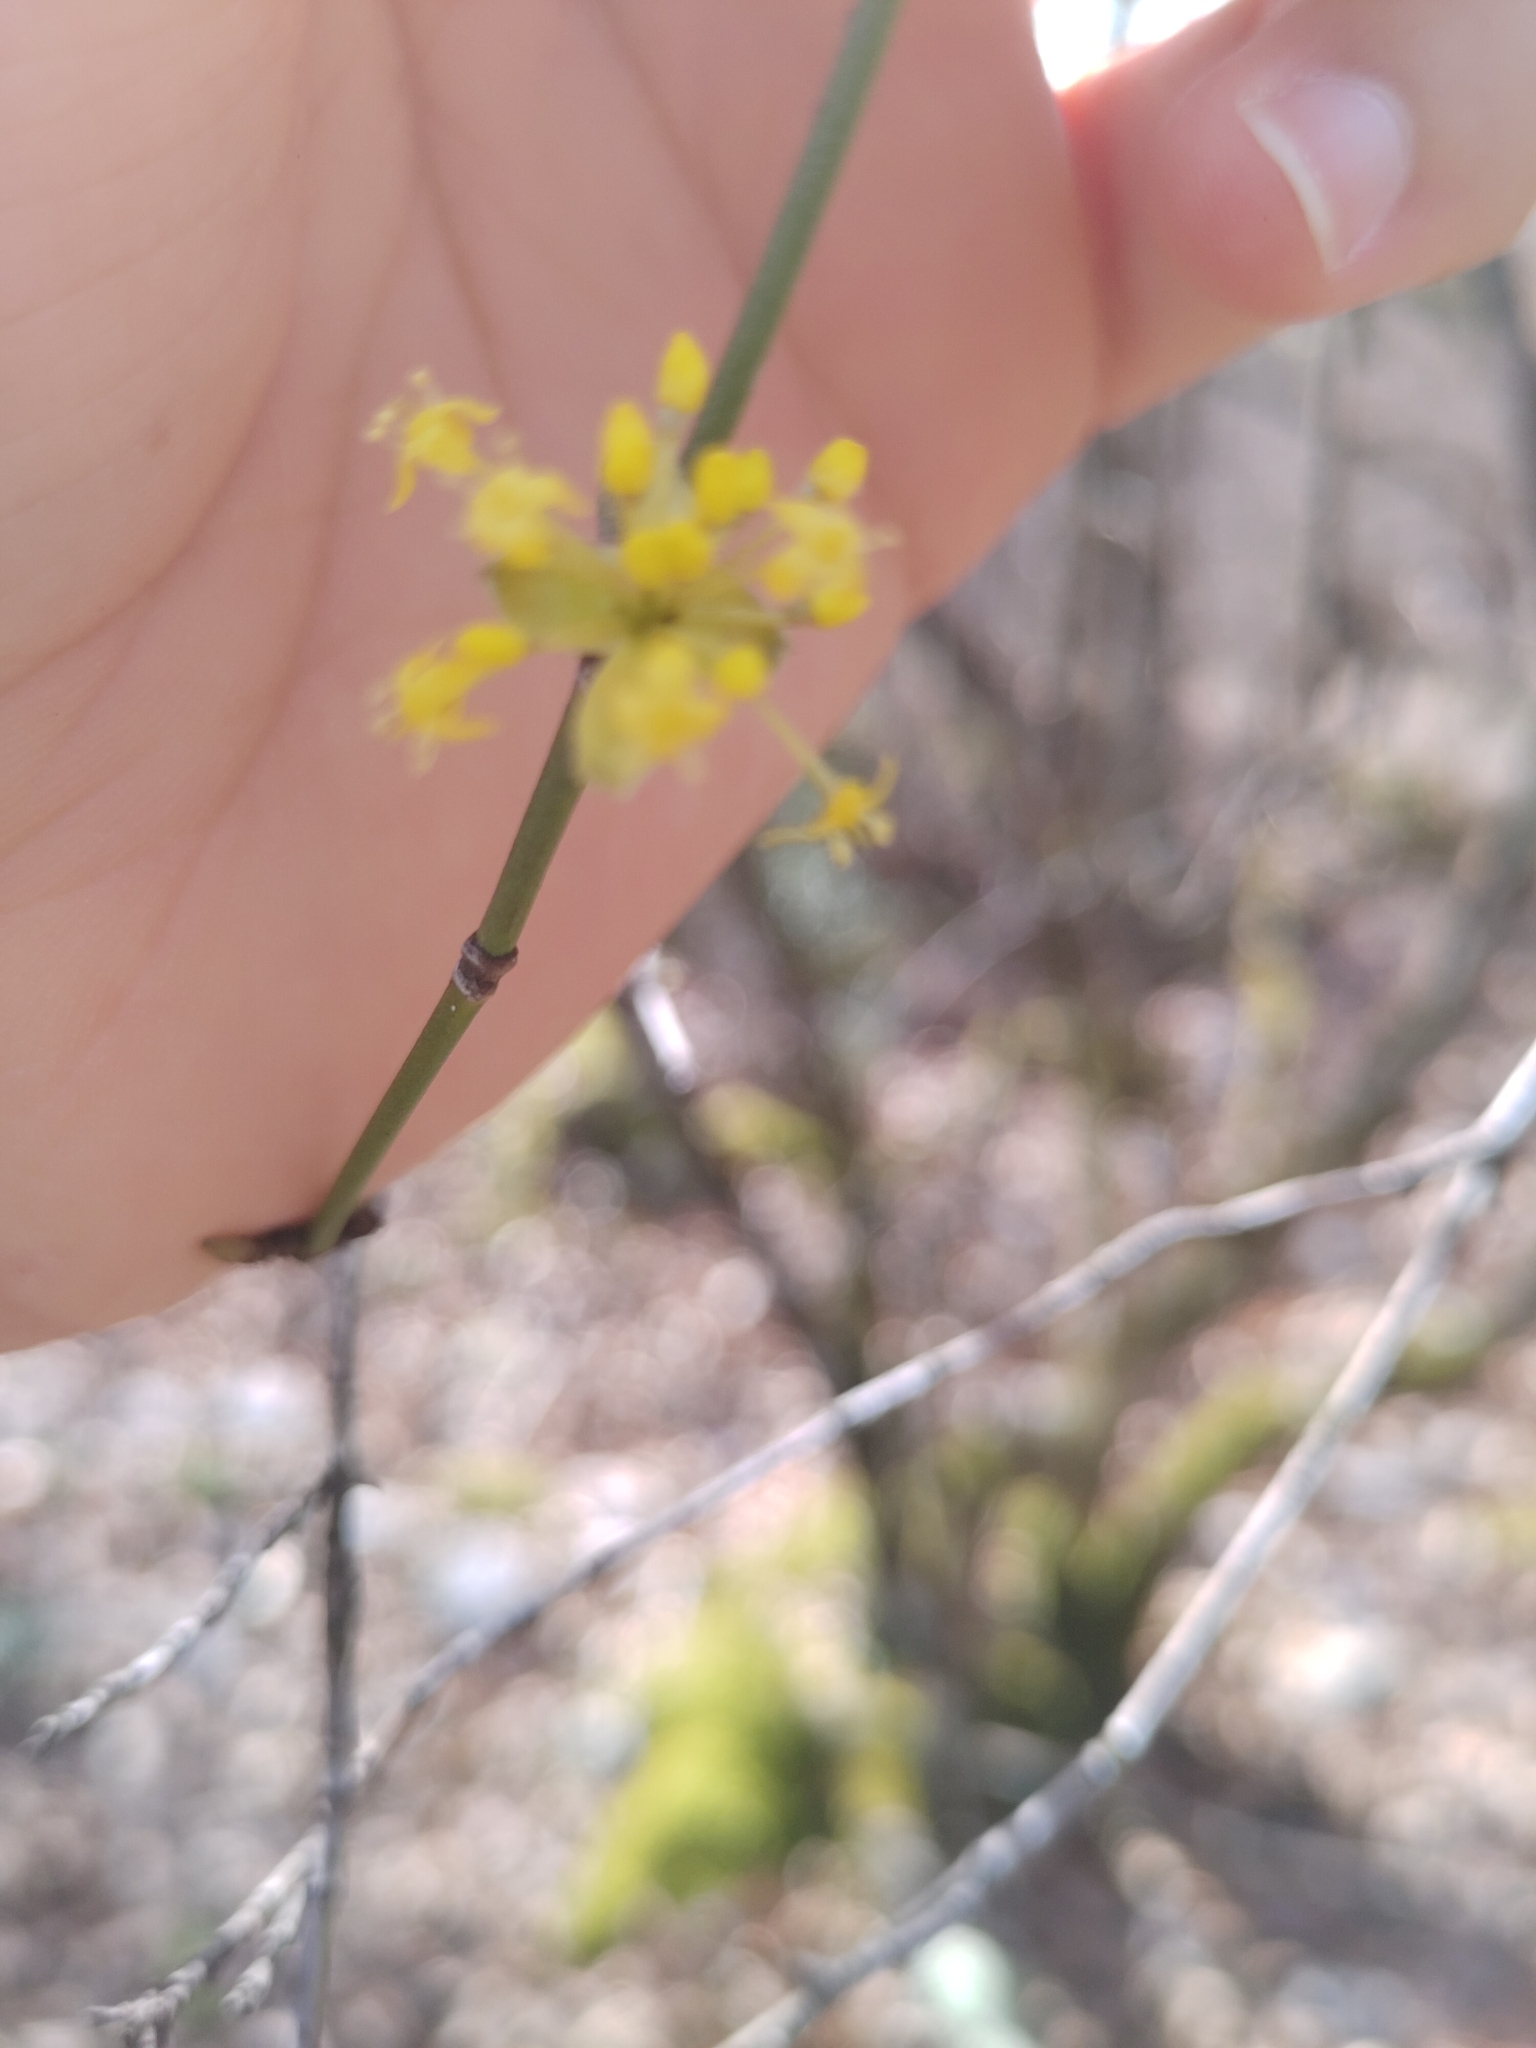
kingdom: Plantae
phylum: Tracheophyta
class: Magnoliopsida
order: Cornales
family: Cornaceae
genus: Cornus
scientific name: Cornus mas
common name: Cornelian-cherry
